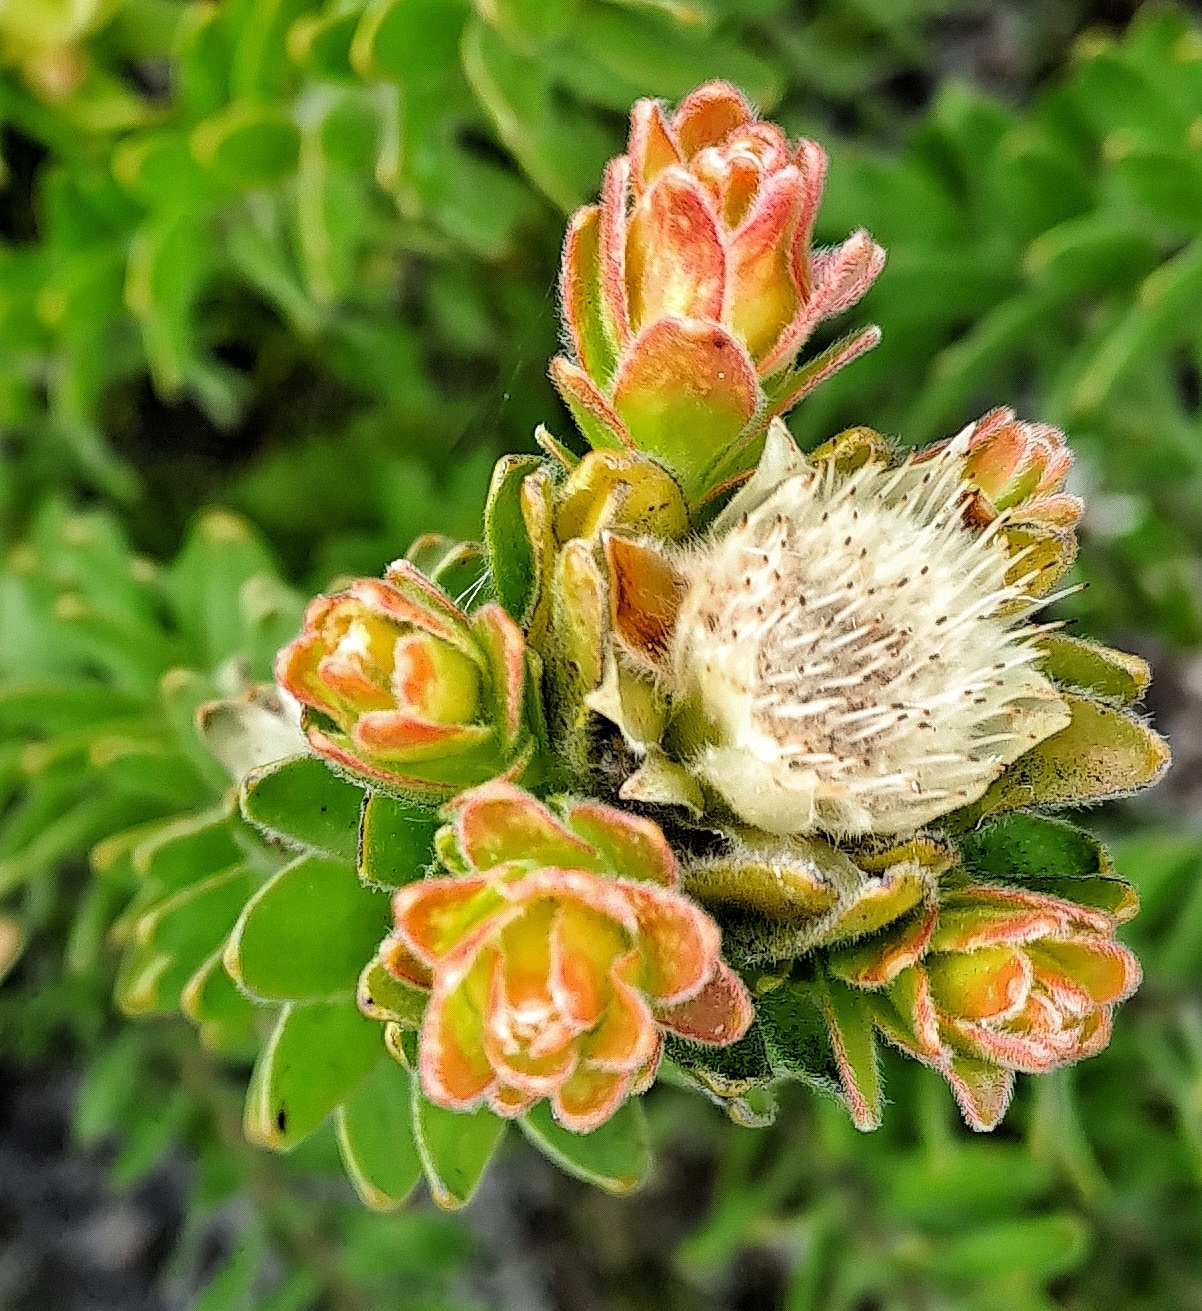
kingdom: Plantae
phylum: Tracheophyta
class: Magnoliopsida
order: Proteales
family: Proteaceae
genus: Diastella
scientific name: Diastella thymelaeoides
